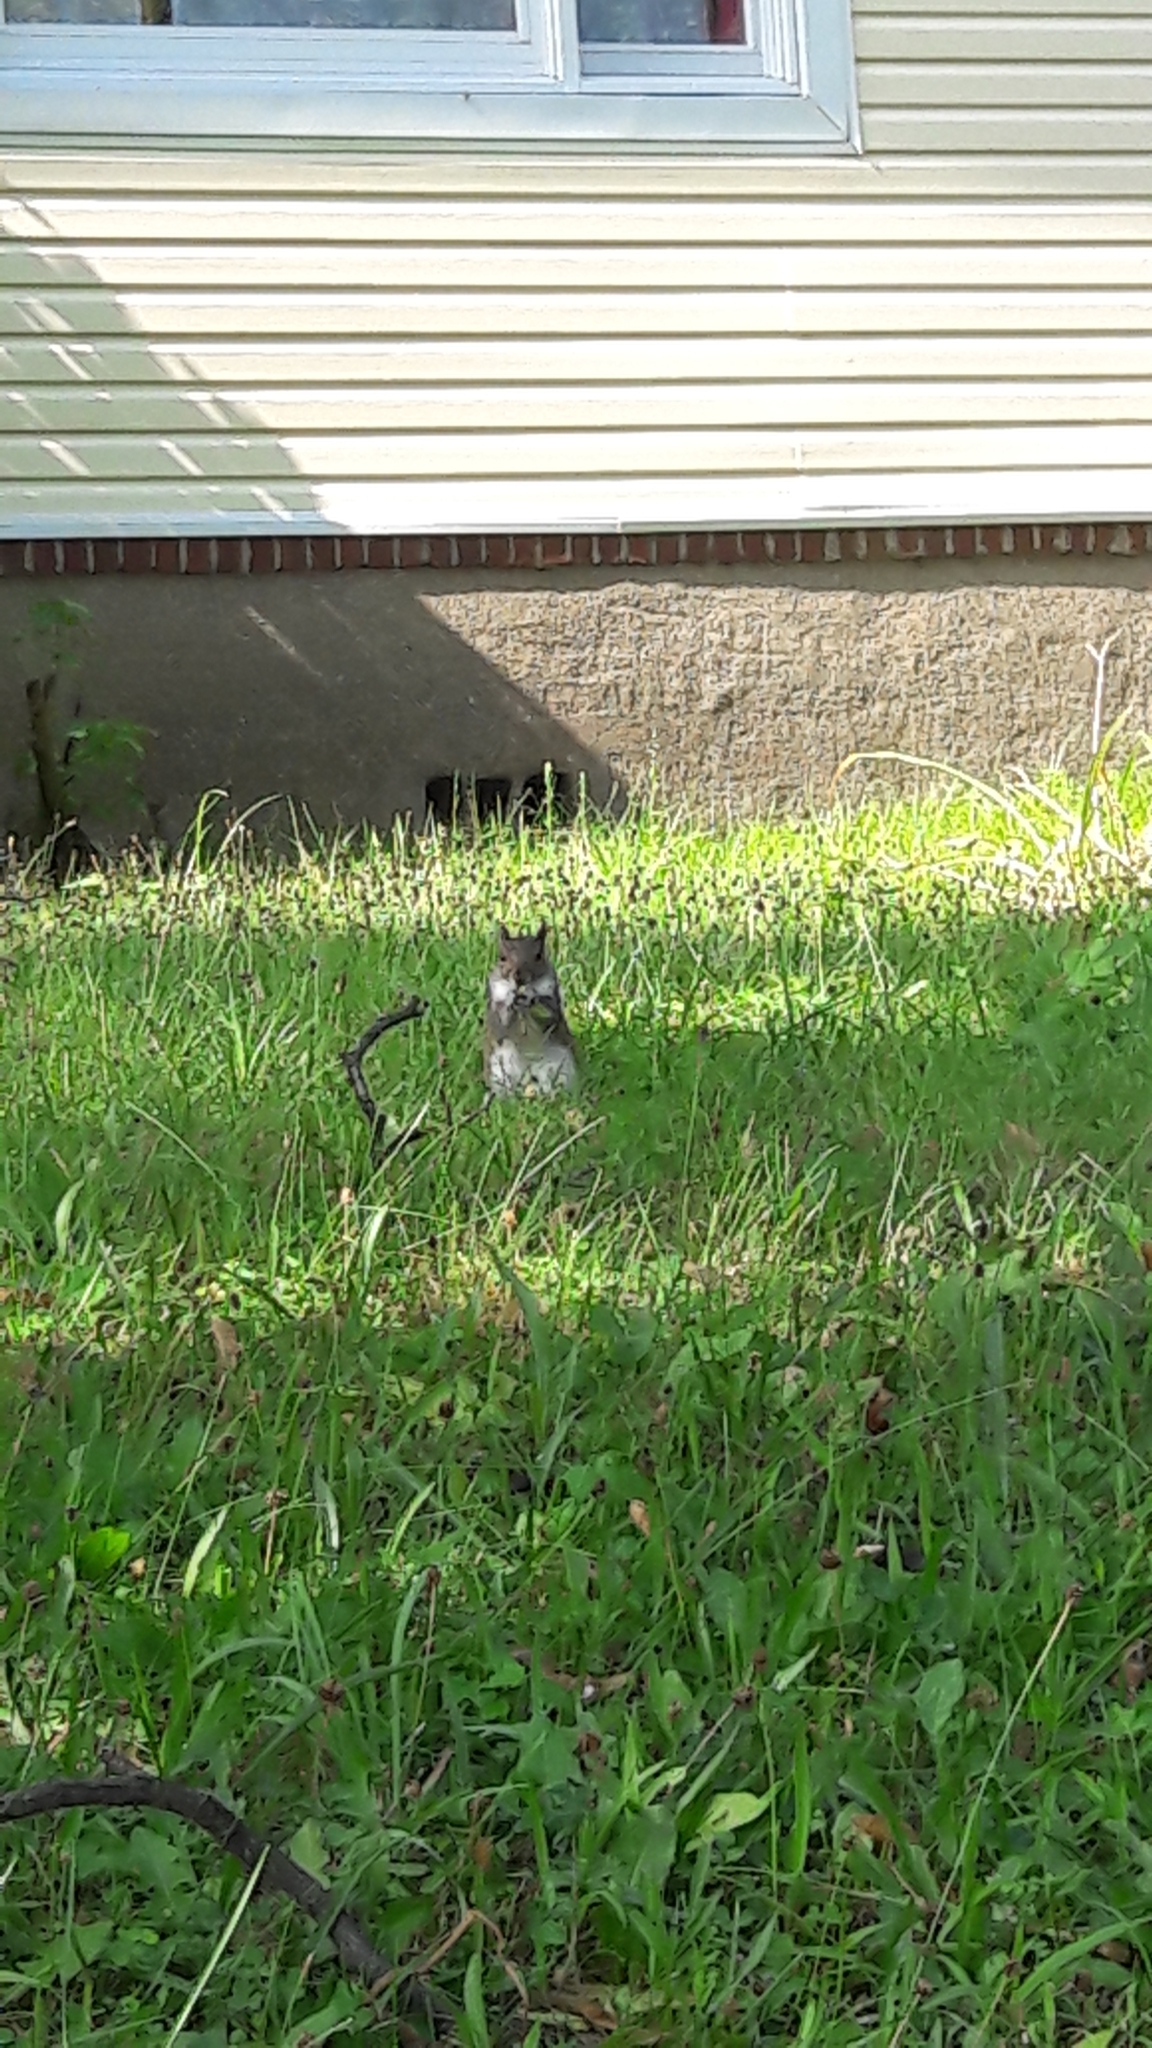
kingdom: Animalia
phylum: Chordata
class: Mammalia
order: Rodentia
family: Sciuridae
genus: Sciurus
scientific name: Sciurus carolinensis
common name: Eastern gray squirrel
